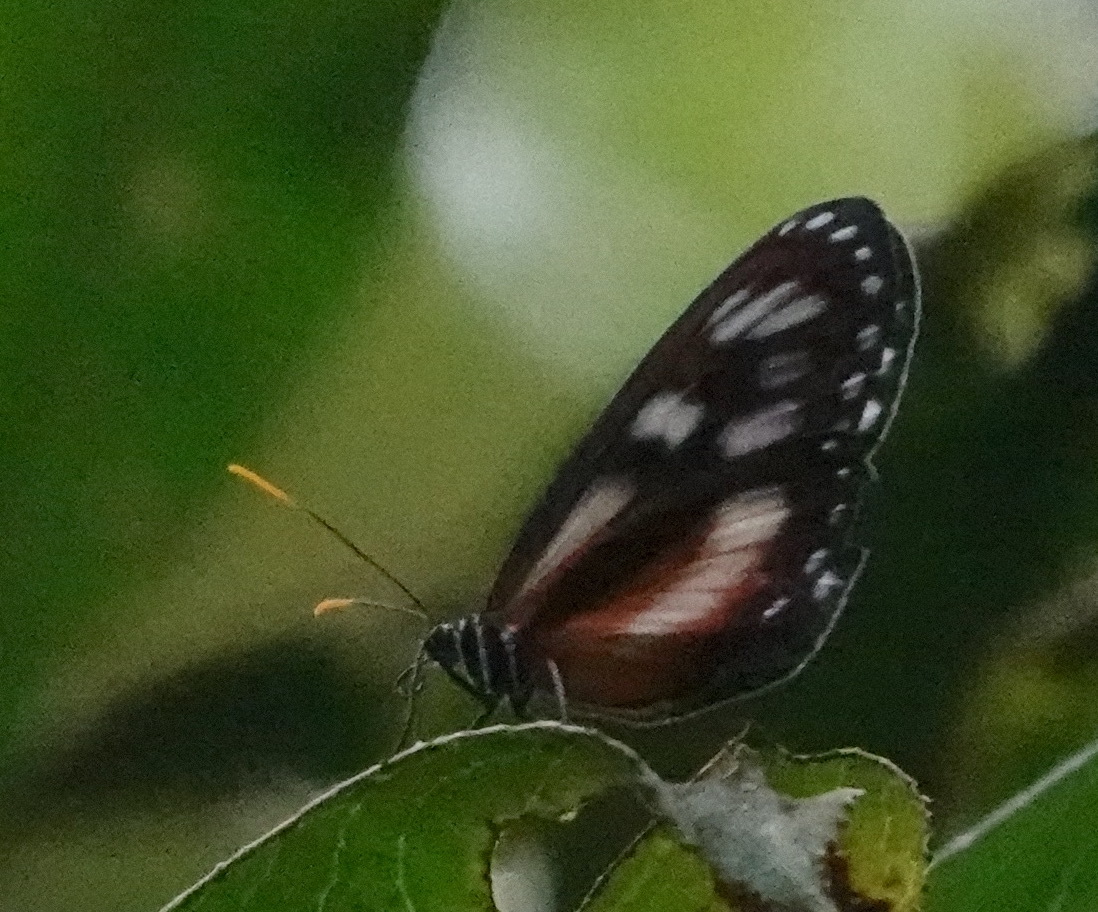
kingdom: Animalia
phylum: Arthropoda
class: Insecta
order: Lepidoptera
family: Nymphalidae
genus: Napeogenes
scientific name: Napeogenes glycera
